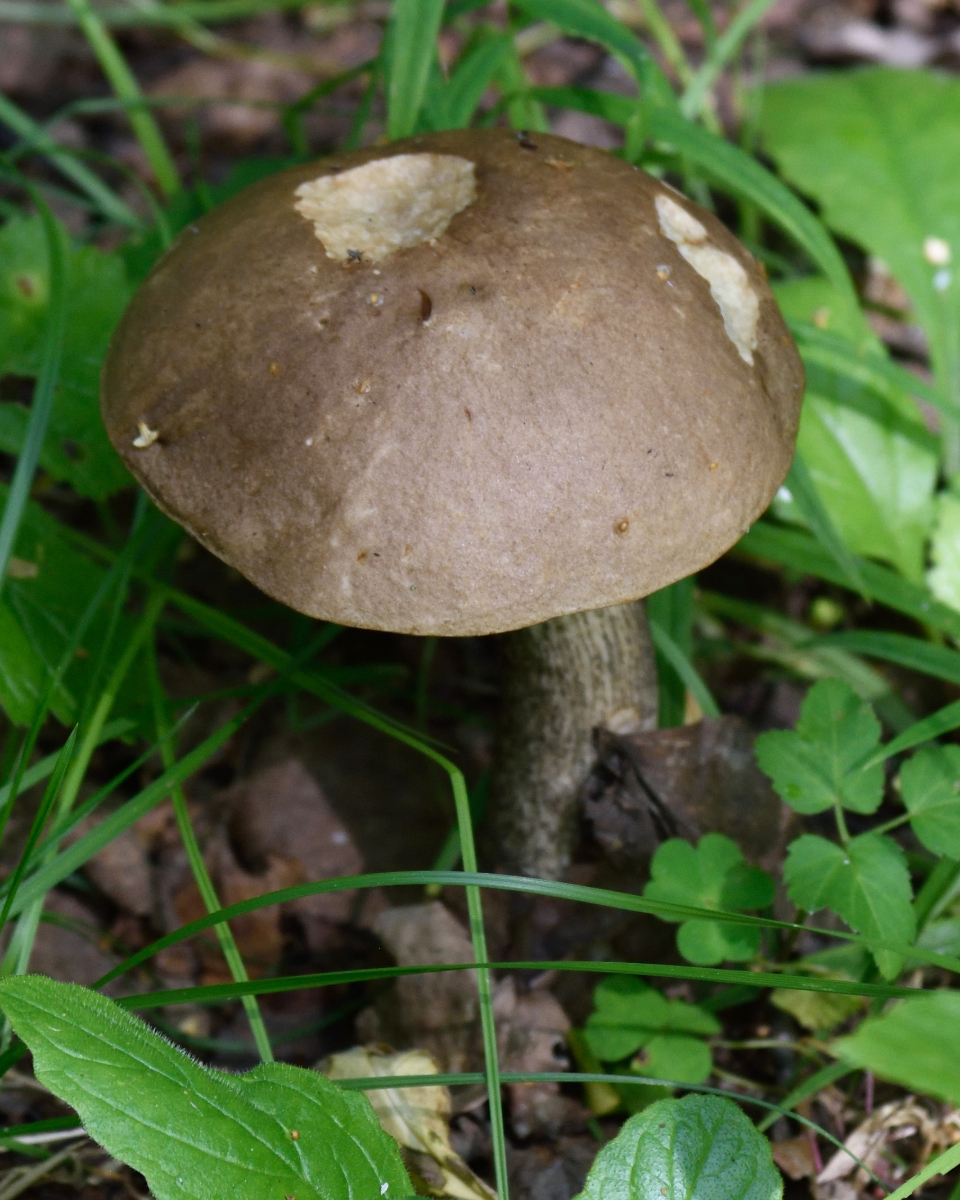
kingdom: Fungi
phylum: Basidiomycota
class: Agaricomycetes
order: Boletales
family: Boletaceae
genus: Leccinum
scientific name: Leccinum scabrum
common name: Blushing bolete
